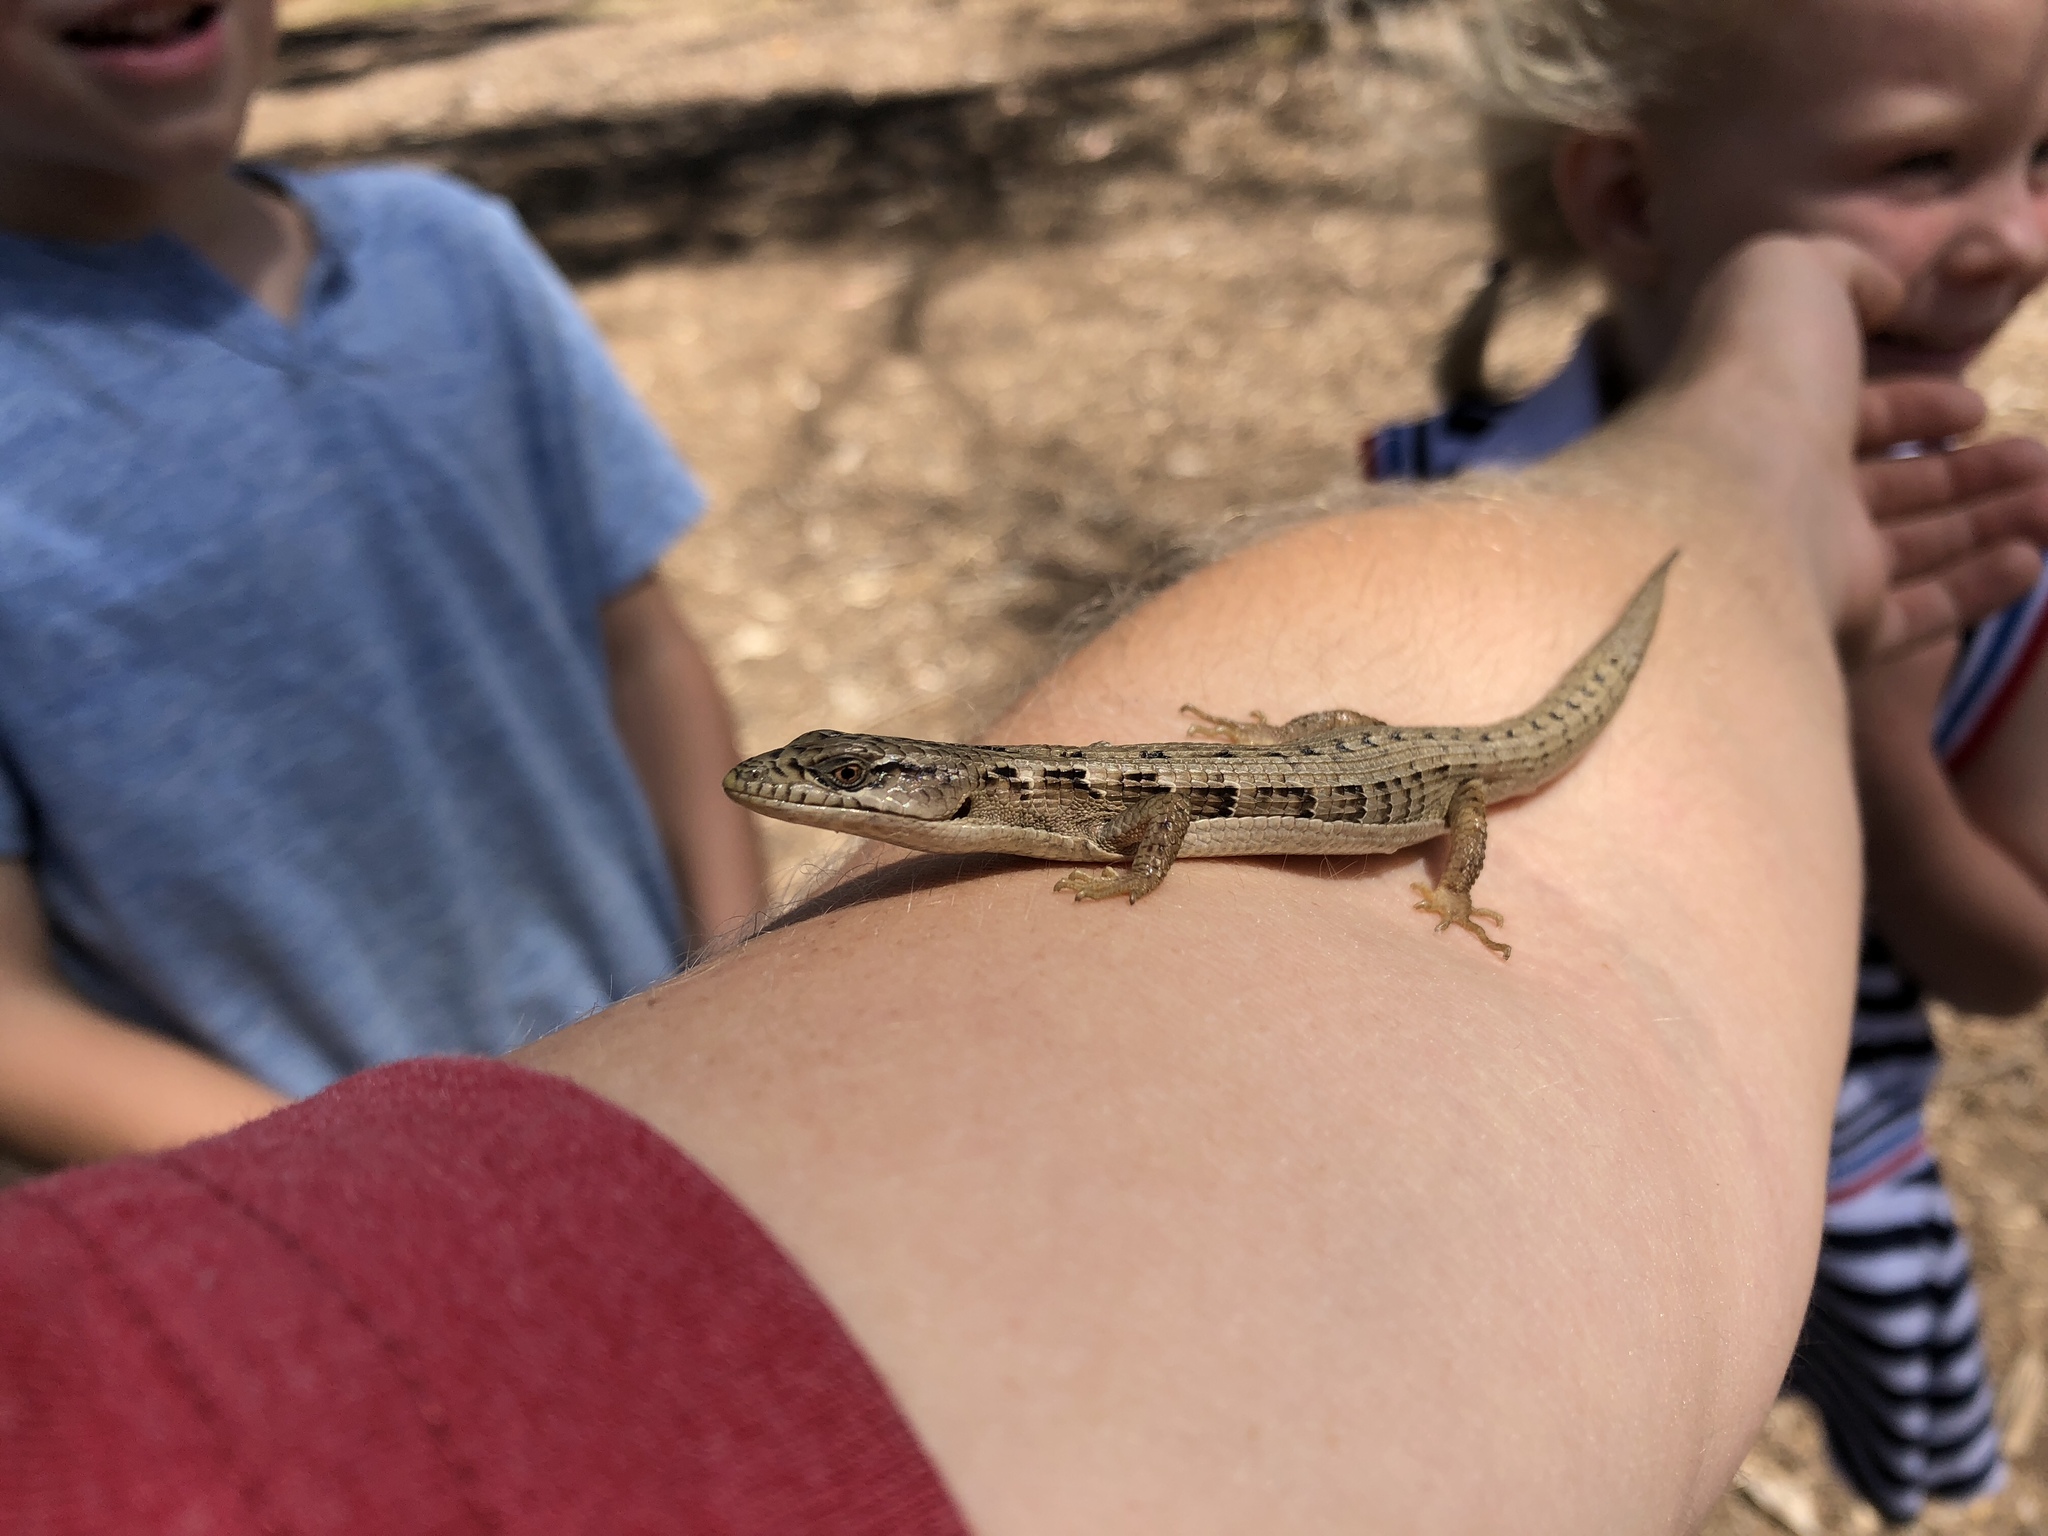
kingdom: Animalia
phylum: Chordata
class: Squamata
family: Anguidae
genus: Elgaria
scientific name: Elgaria multicarinata
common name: Southern alligator lizard
